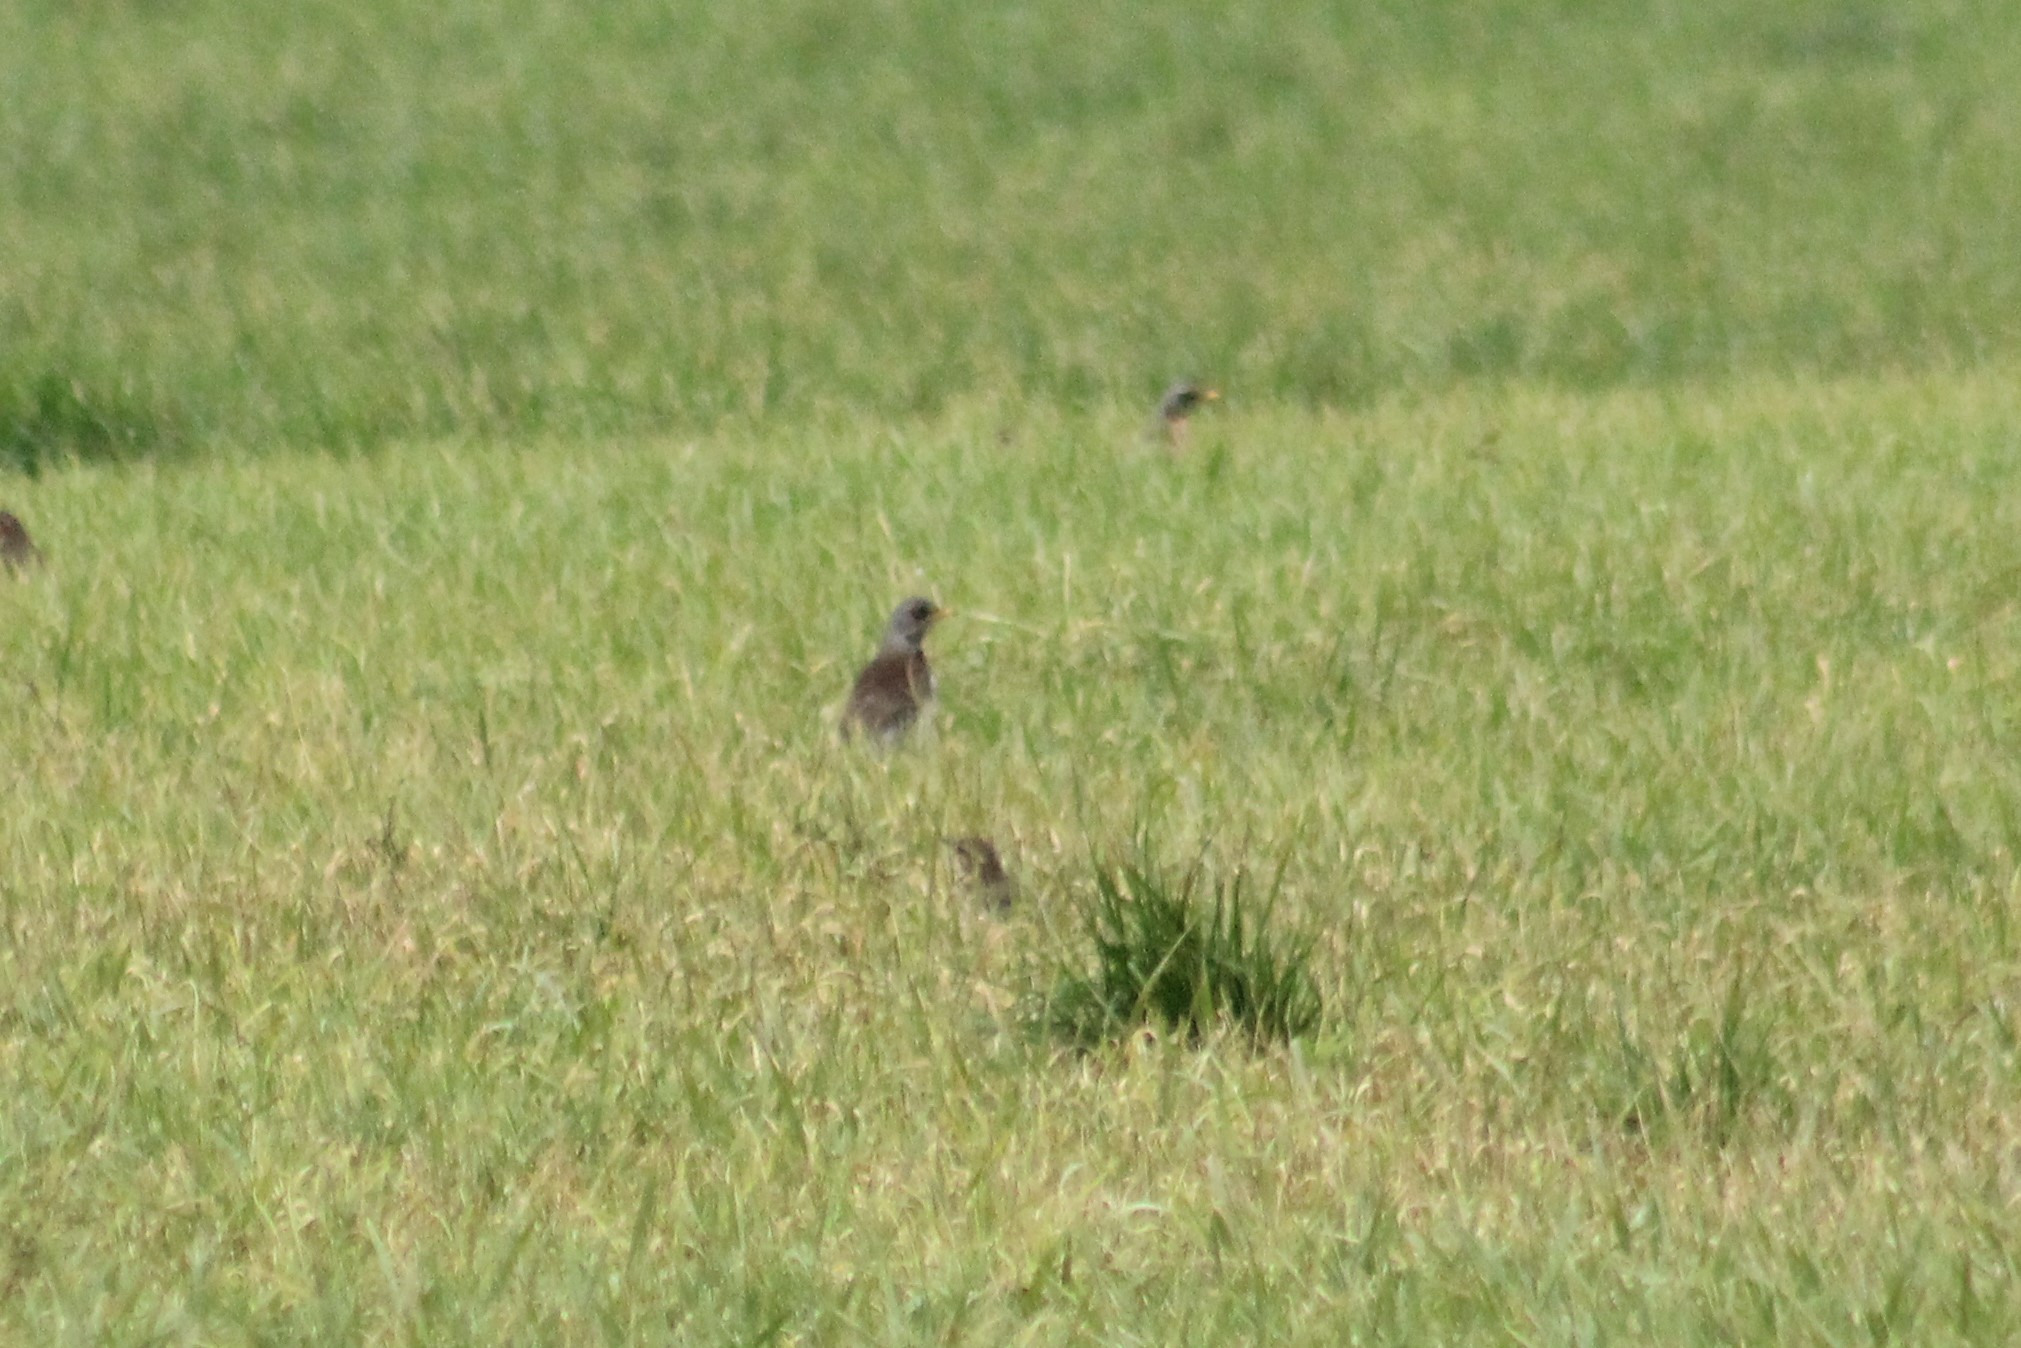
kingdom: Animalia
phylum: Chordata
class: Aves
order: Passeriformes
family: Turdidae
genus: Turdus
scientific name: Turdus pilaris
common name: Fieldfare
